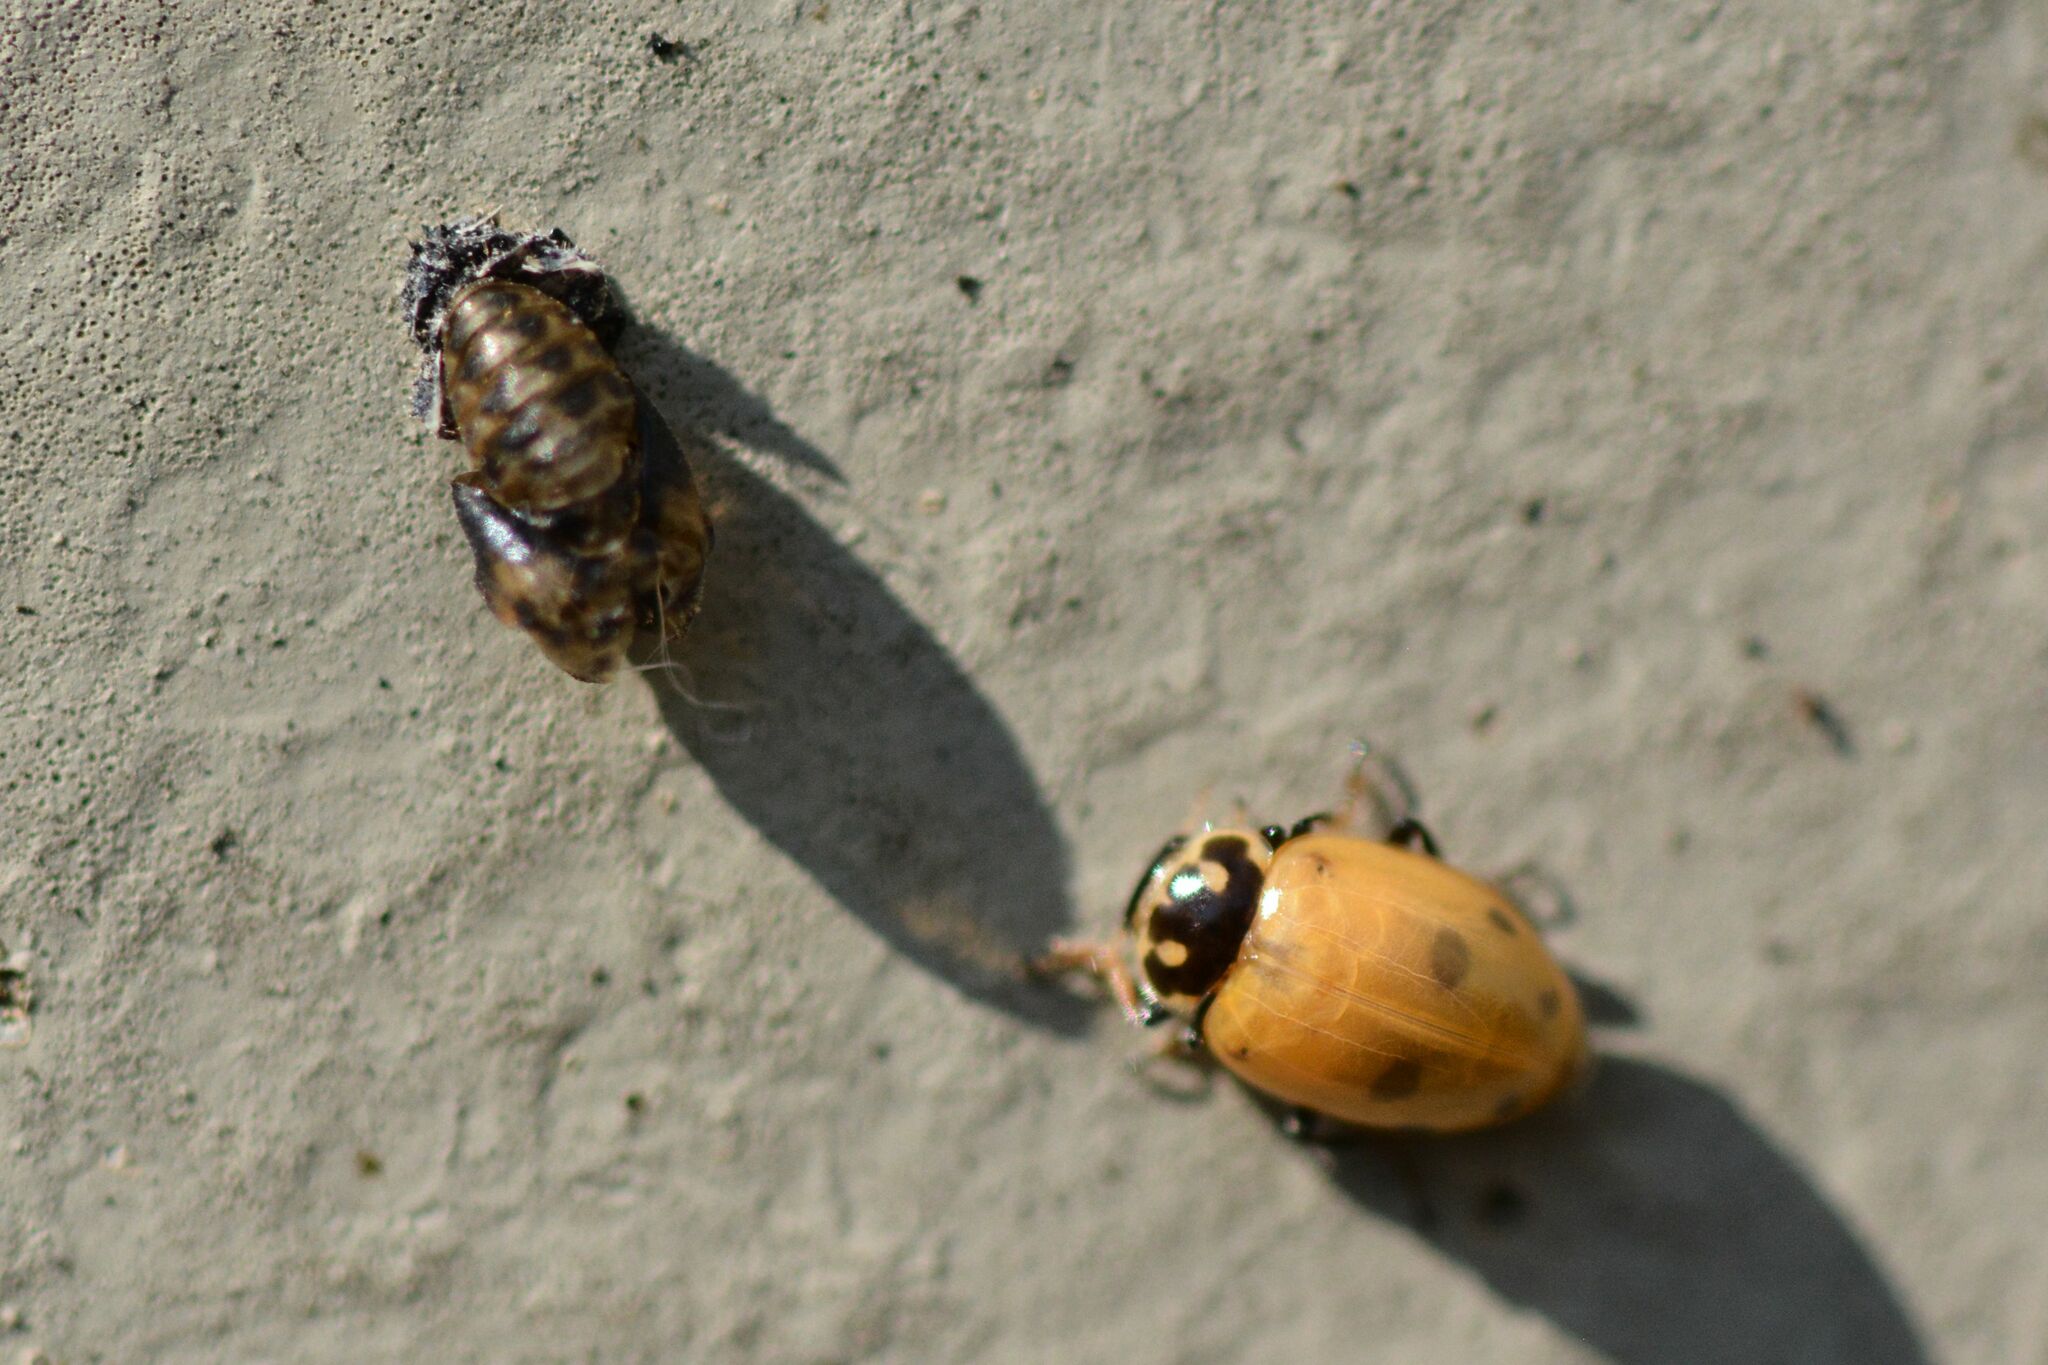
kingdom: Animalia
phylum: Arthropoda
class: Insecta
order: Coleoptera
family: Coccinellidae
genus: Hippodamia
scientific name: Hippodamia variegata
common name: Ladybird beetle
